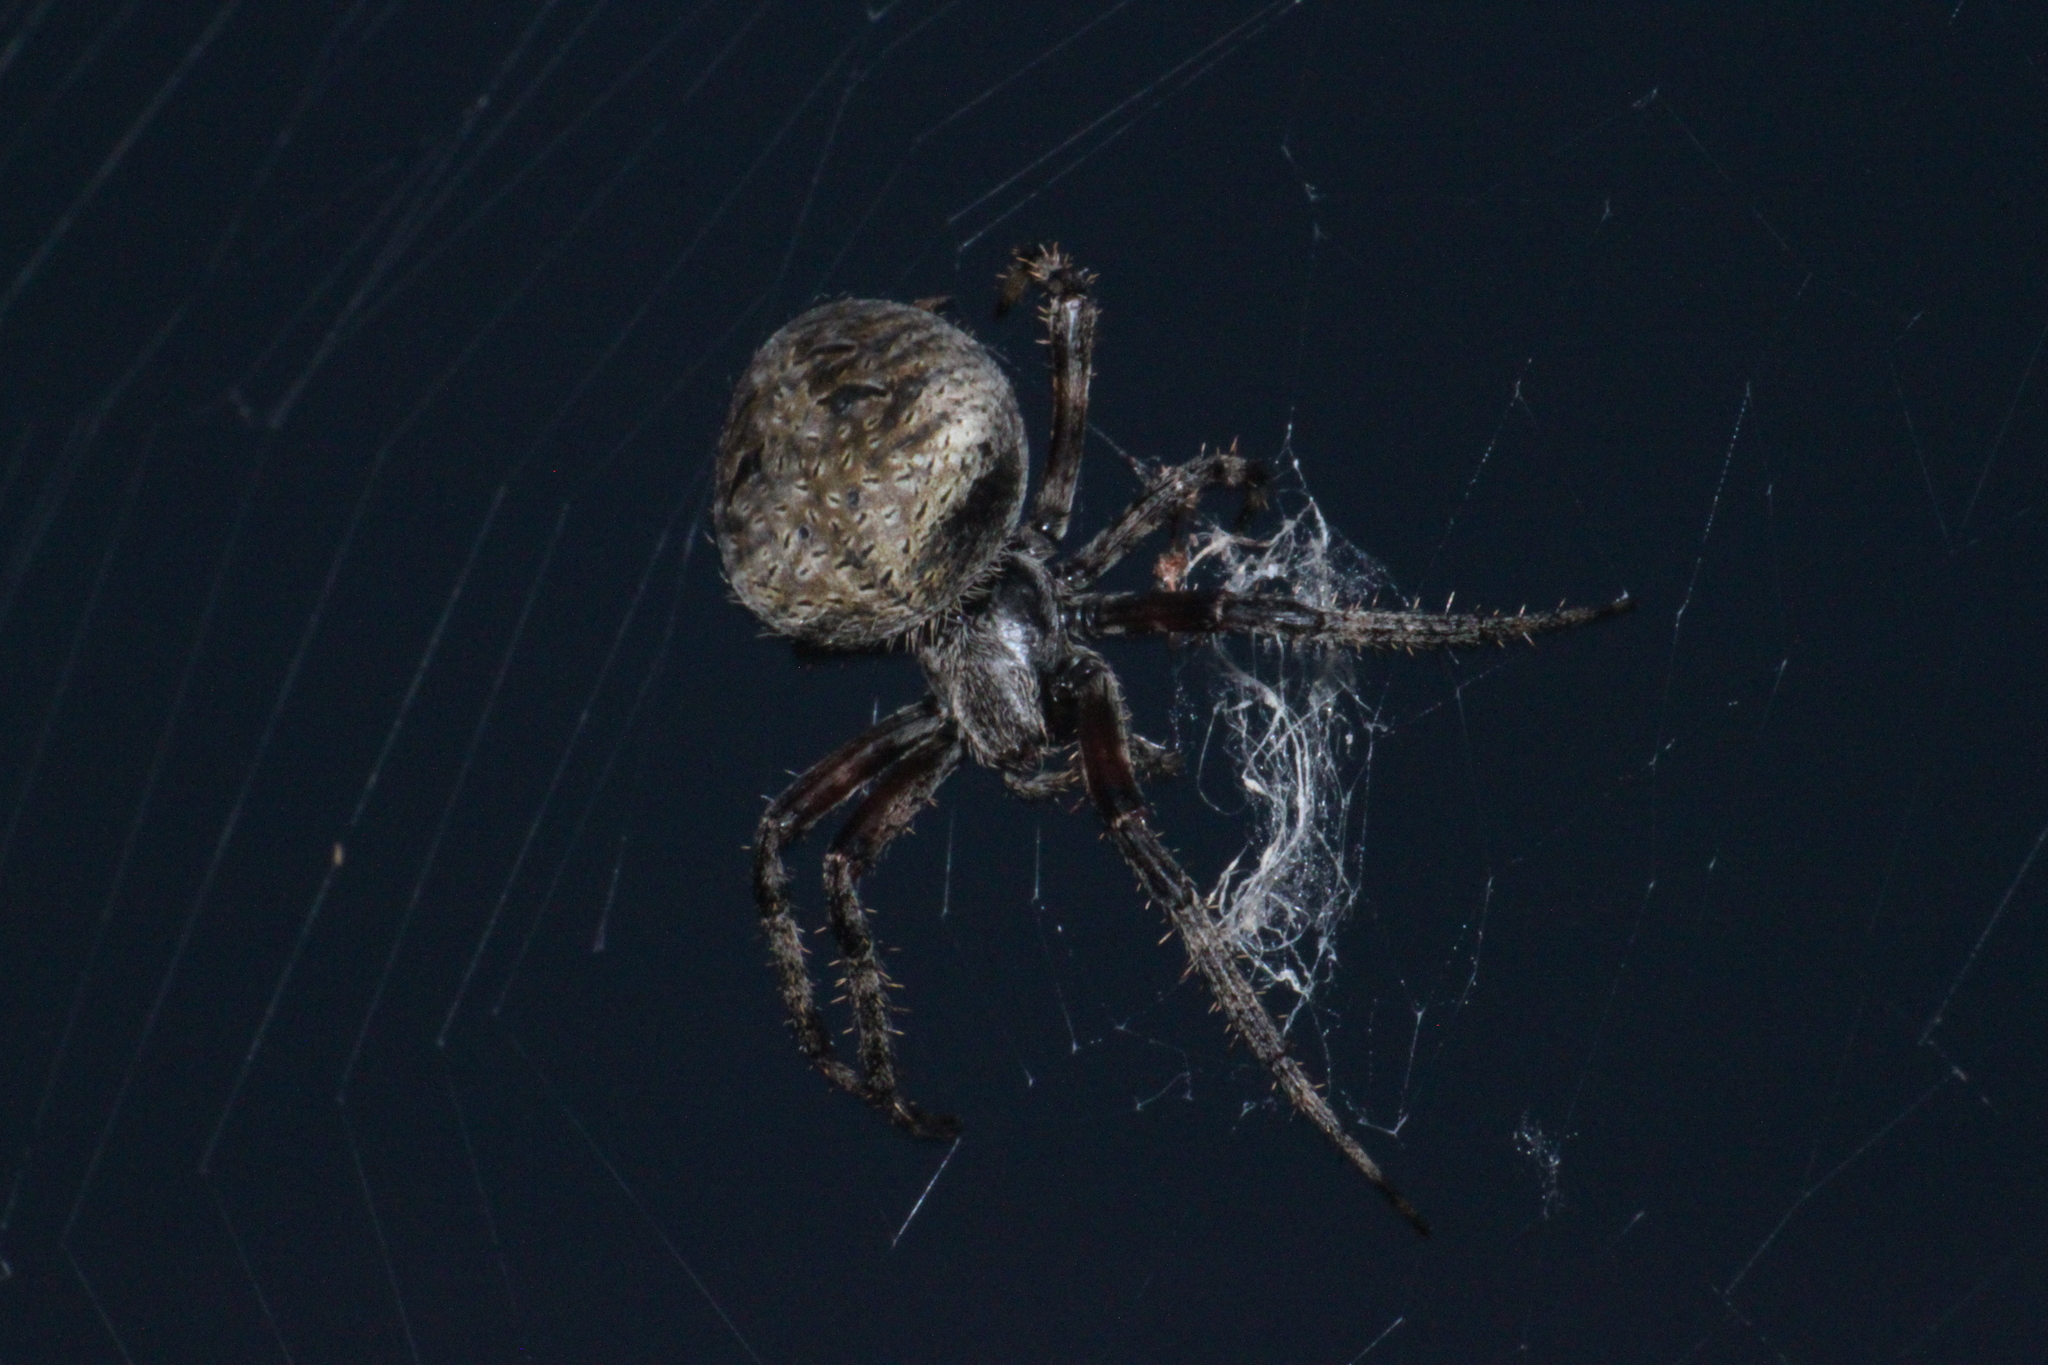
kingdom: Animalia
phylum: Arthropoda
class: Arachnida
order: Araneae
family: Araneidae
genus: Neoscona
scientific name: Neoscona crucifera
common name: Spotted orbweaver
